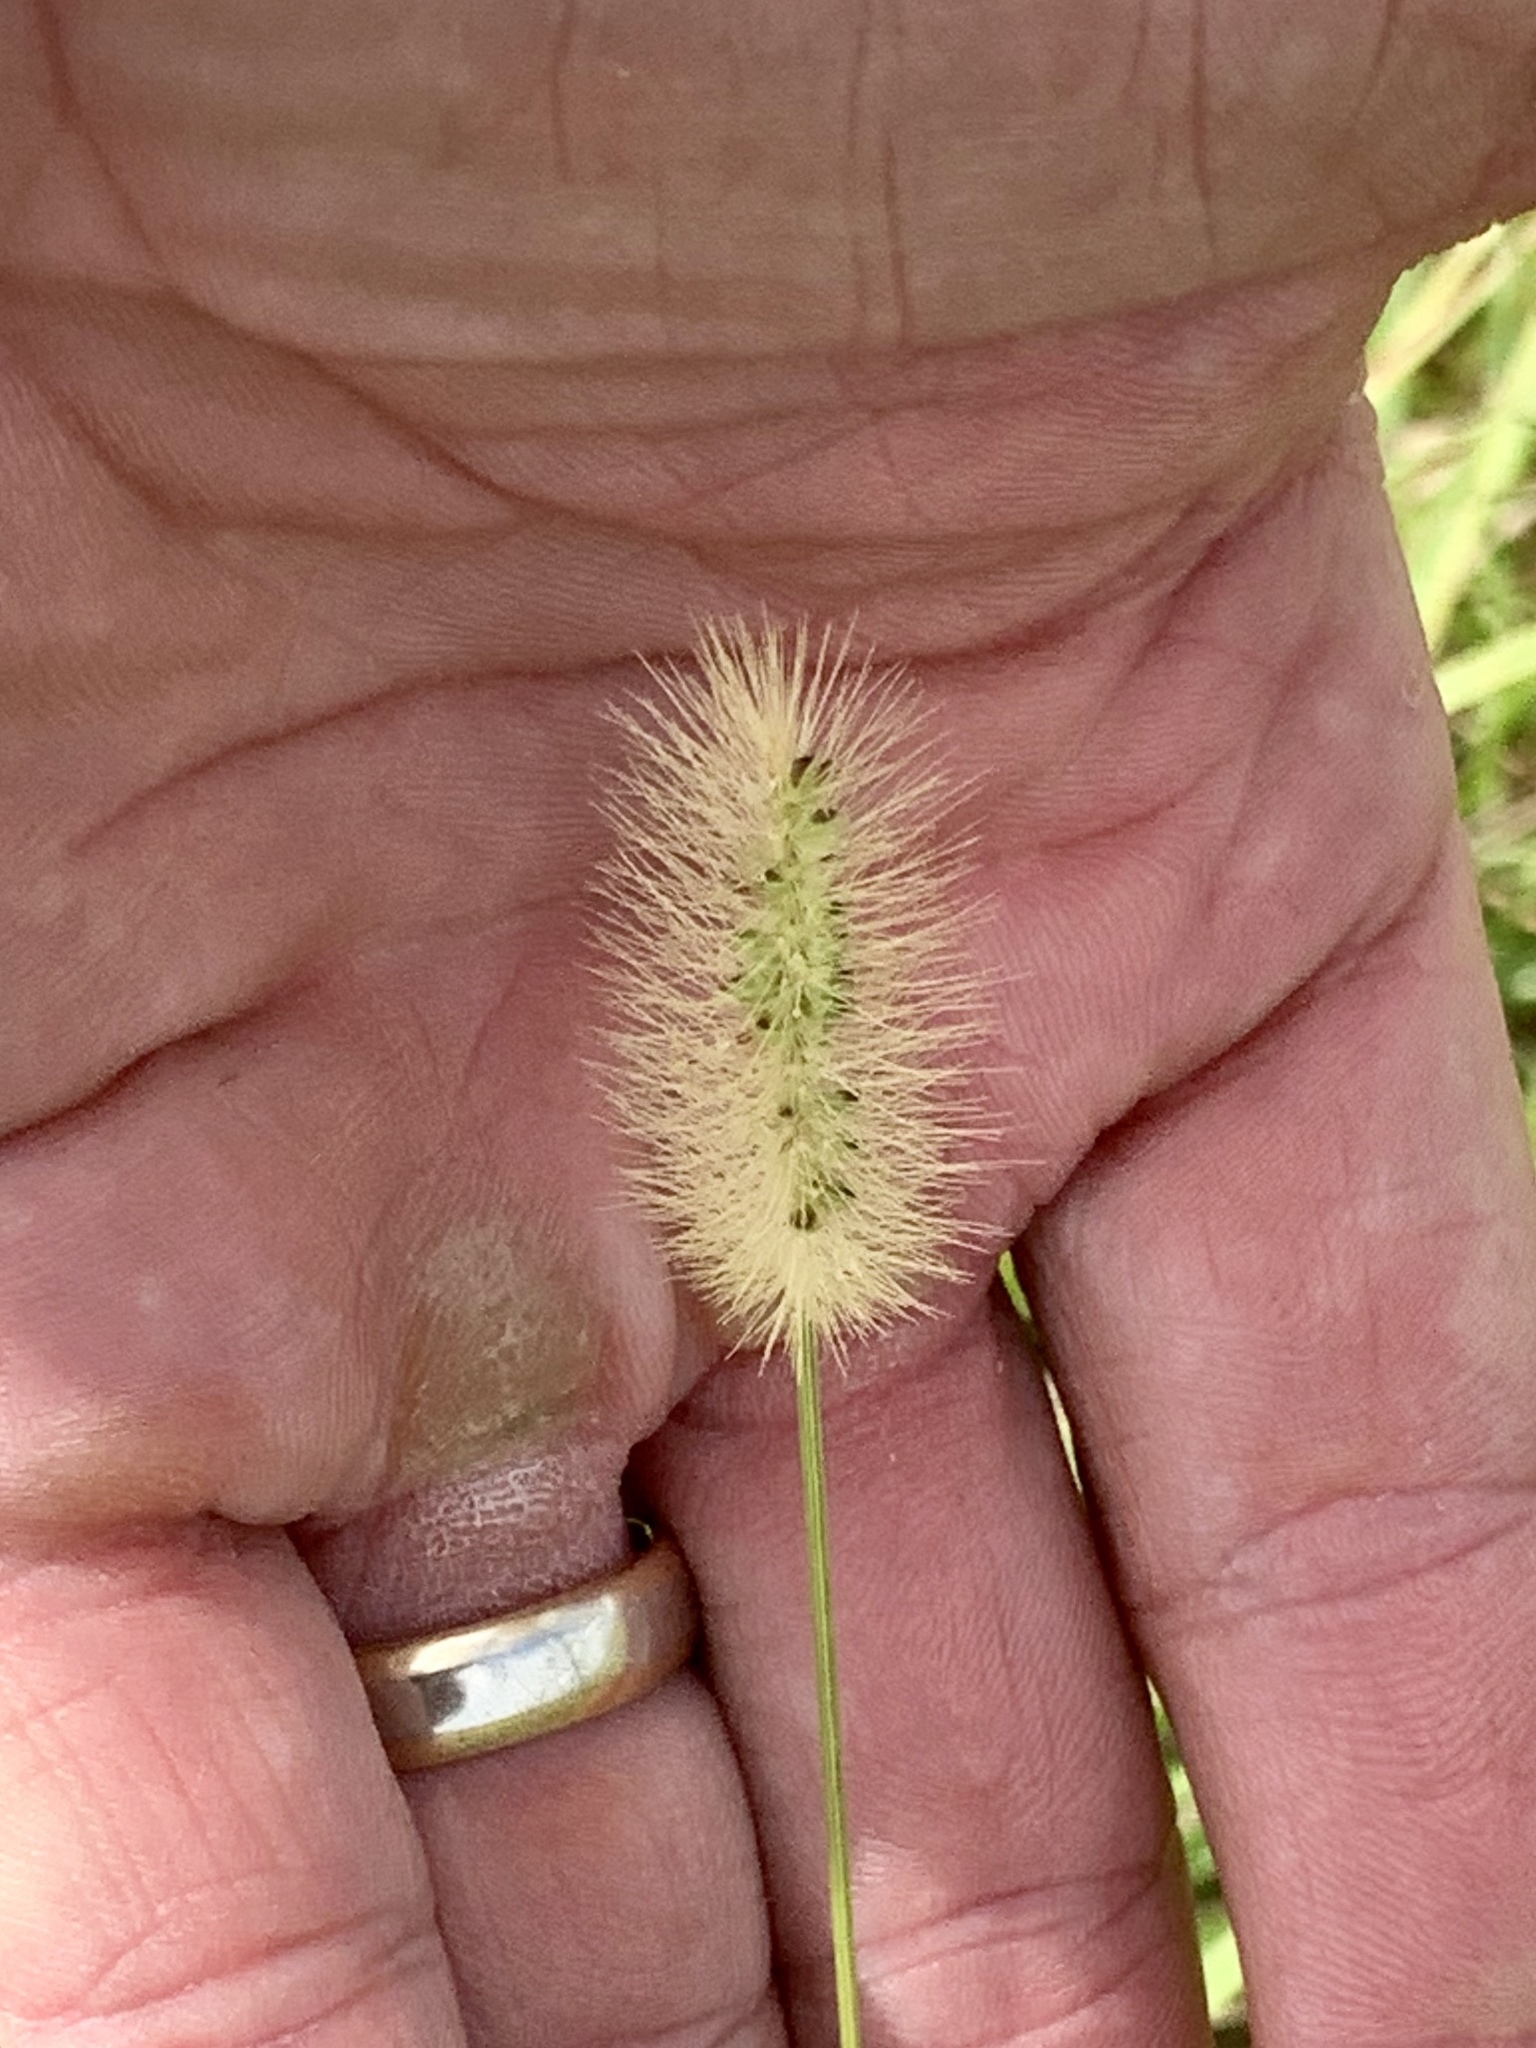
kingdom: Plantae
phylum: Tracheophyta
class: Liliopsida
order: Poales
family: Poaceae
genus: Setaria
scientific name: Setaria parviflora
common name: Knotroot bristle-grass
